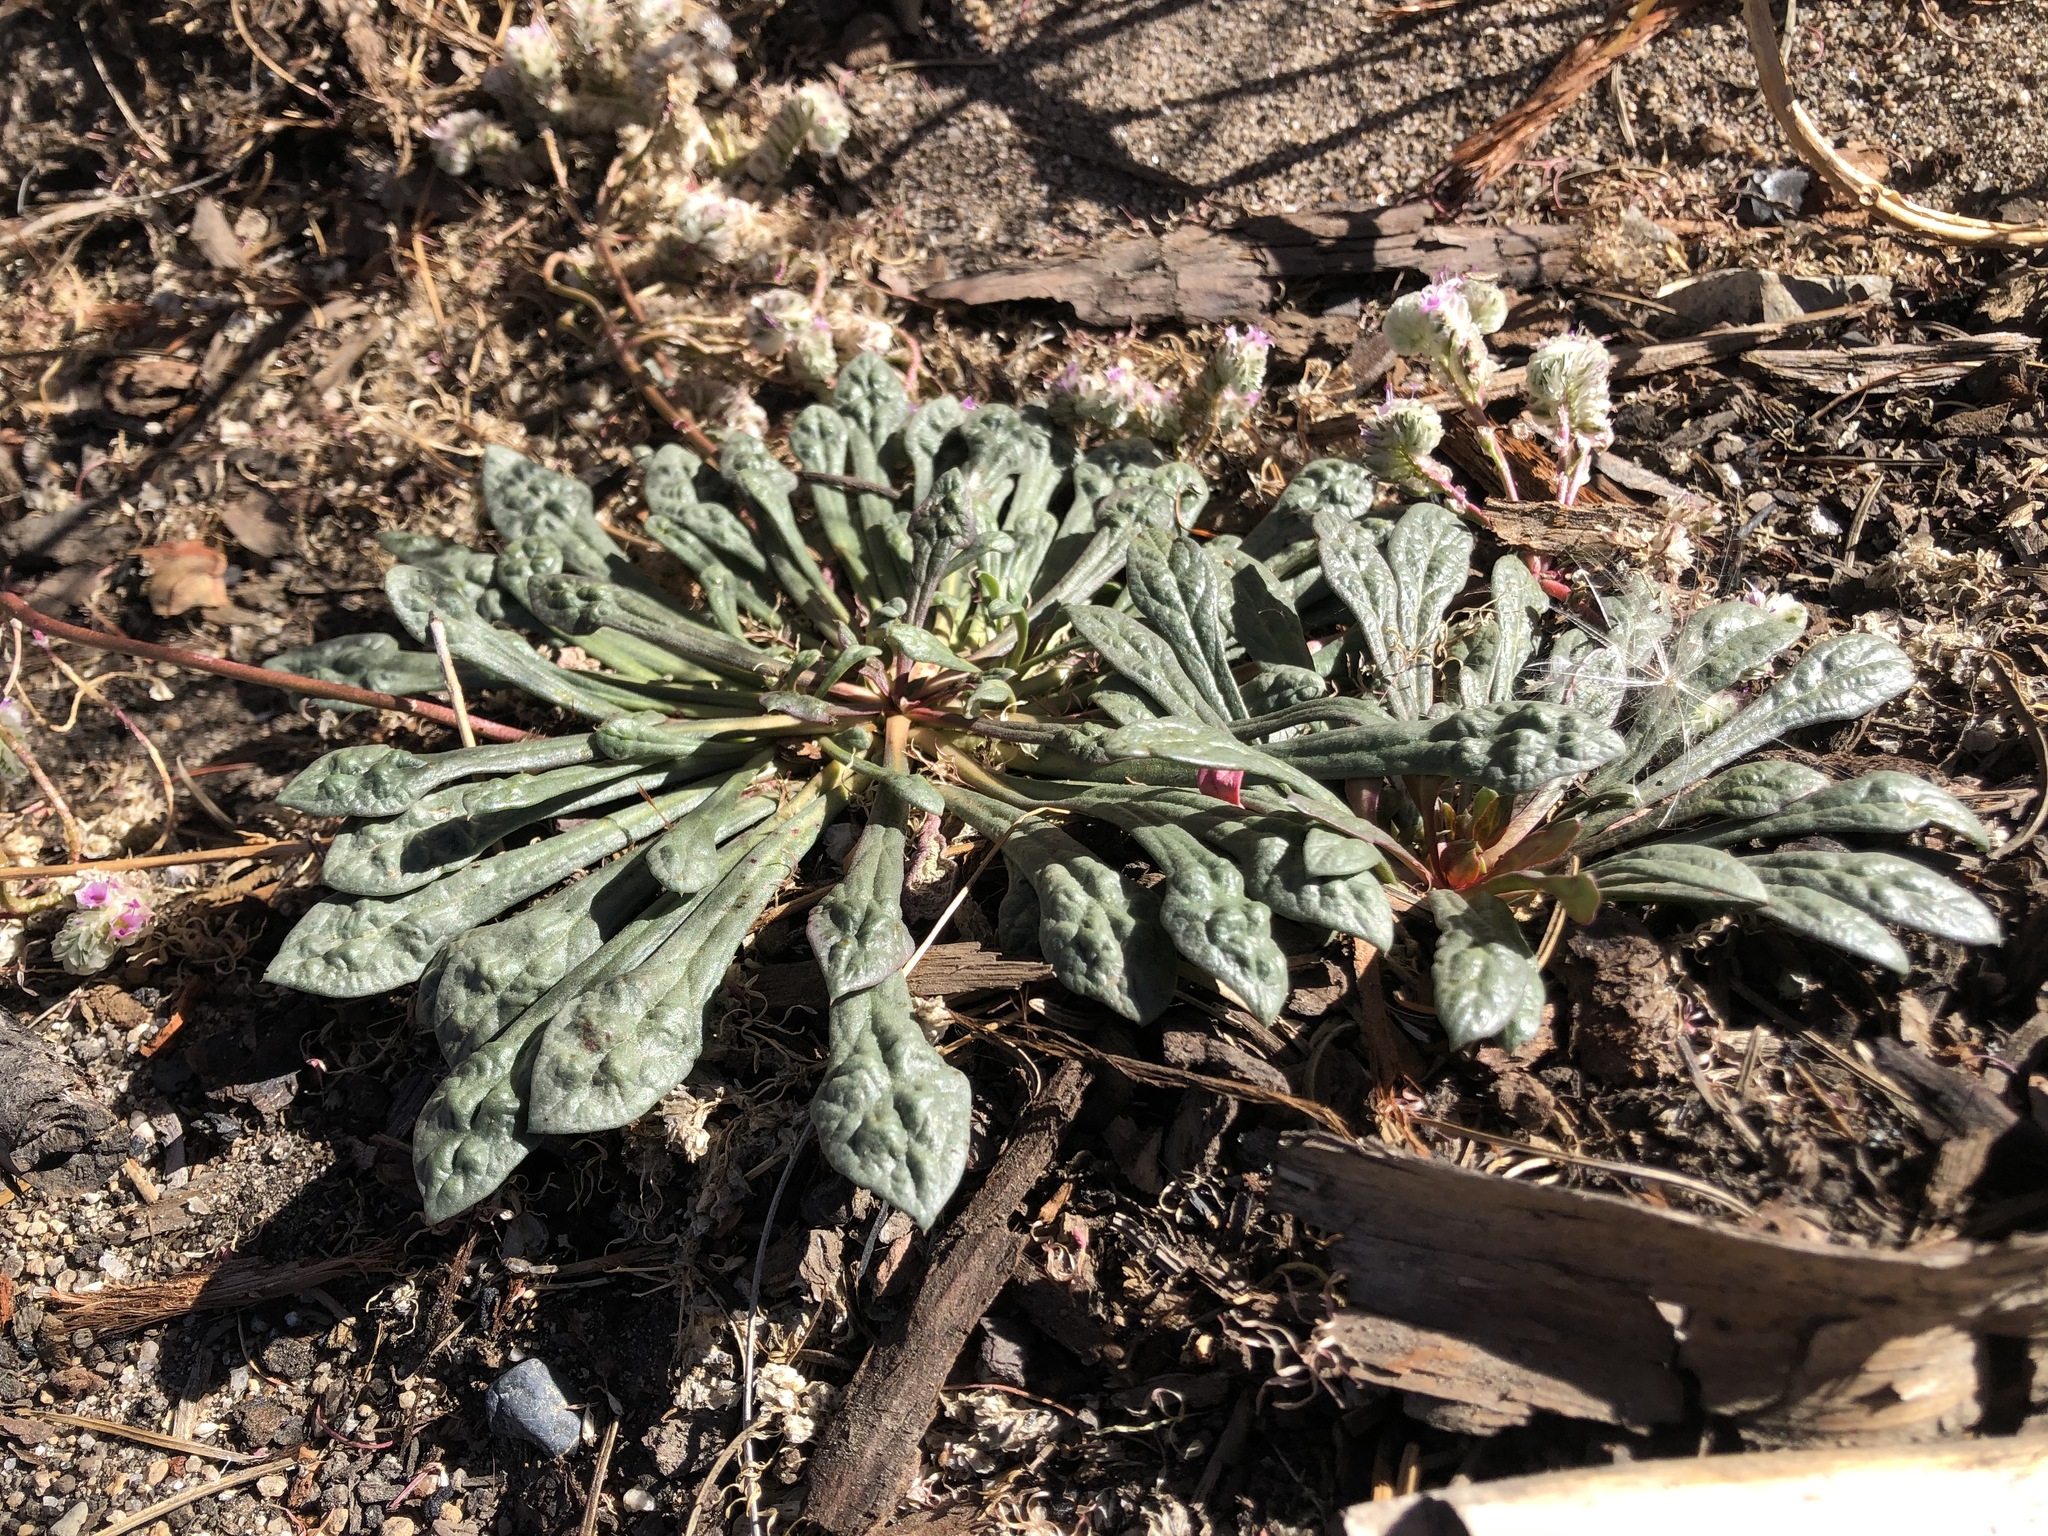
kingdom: Plantae
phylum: Tracheophyta
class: Magnoliopsida
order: Caryophyllales
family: Montiaceae
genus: Calyptridium
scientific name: Calyptridium monospermum
